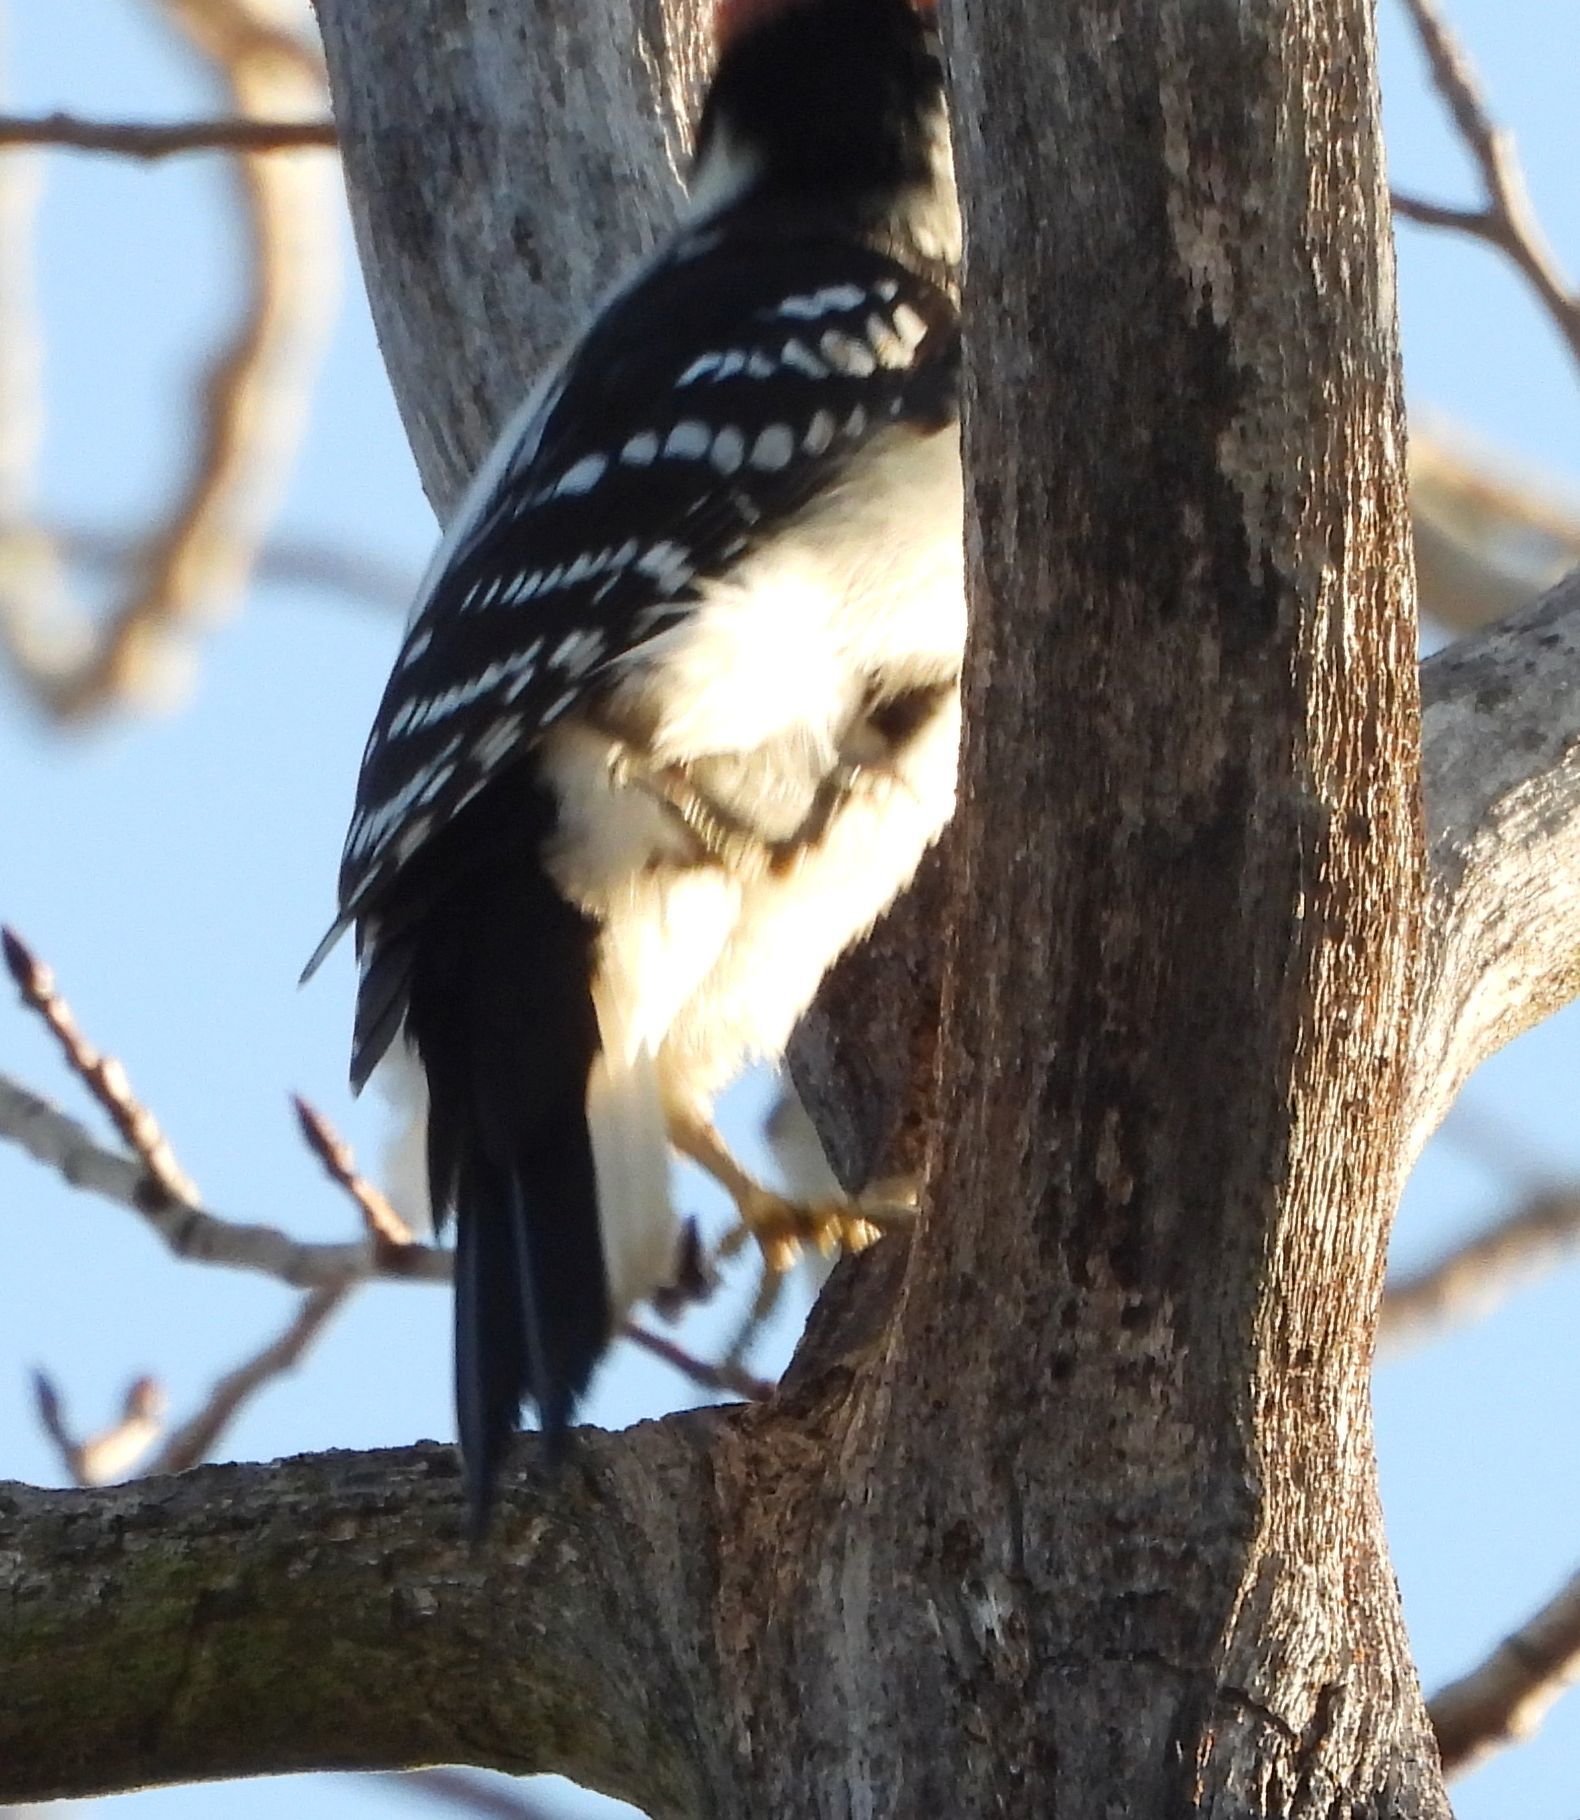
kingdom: Animalia
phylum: Chordata
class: Aves
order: Piciformes
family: Picidae
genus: Leuconotopicus
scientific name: Leuconotopicus villosus
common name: Hairy woodpecker
